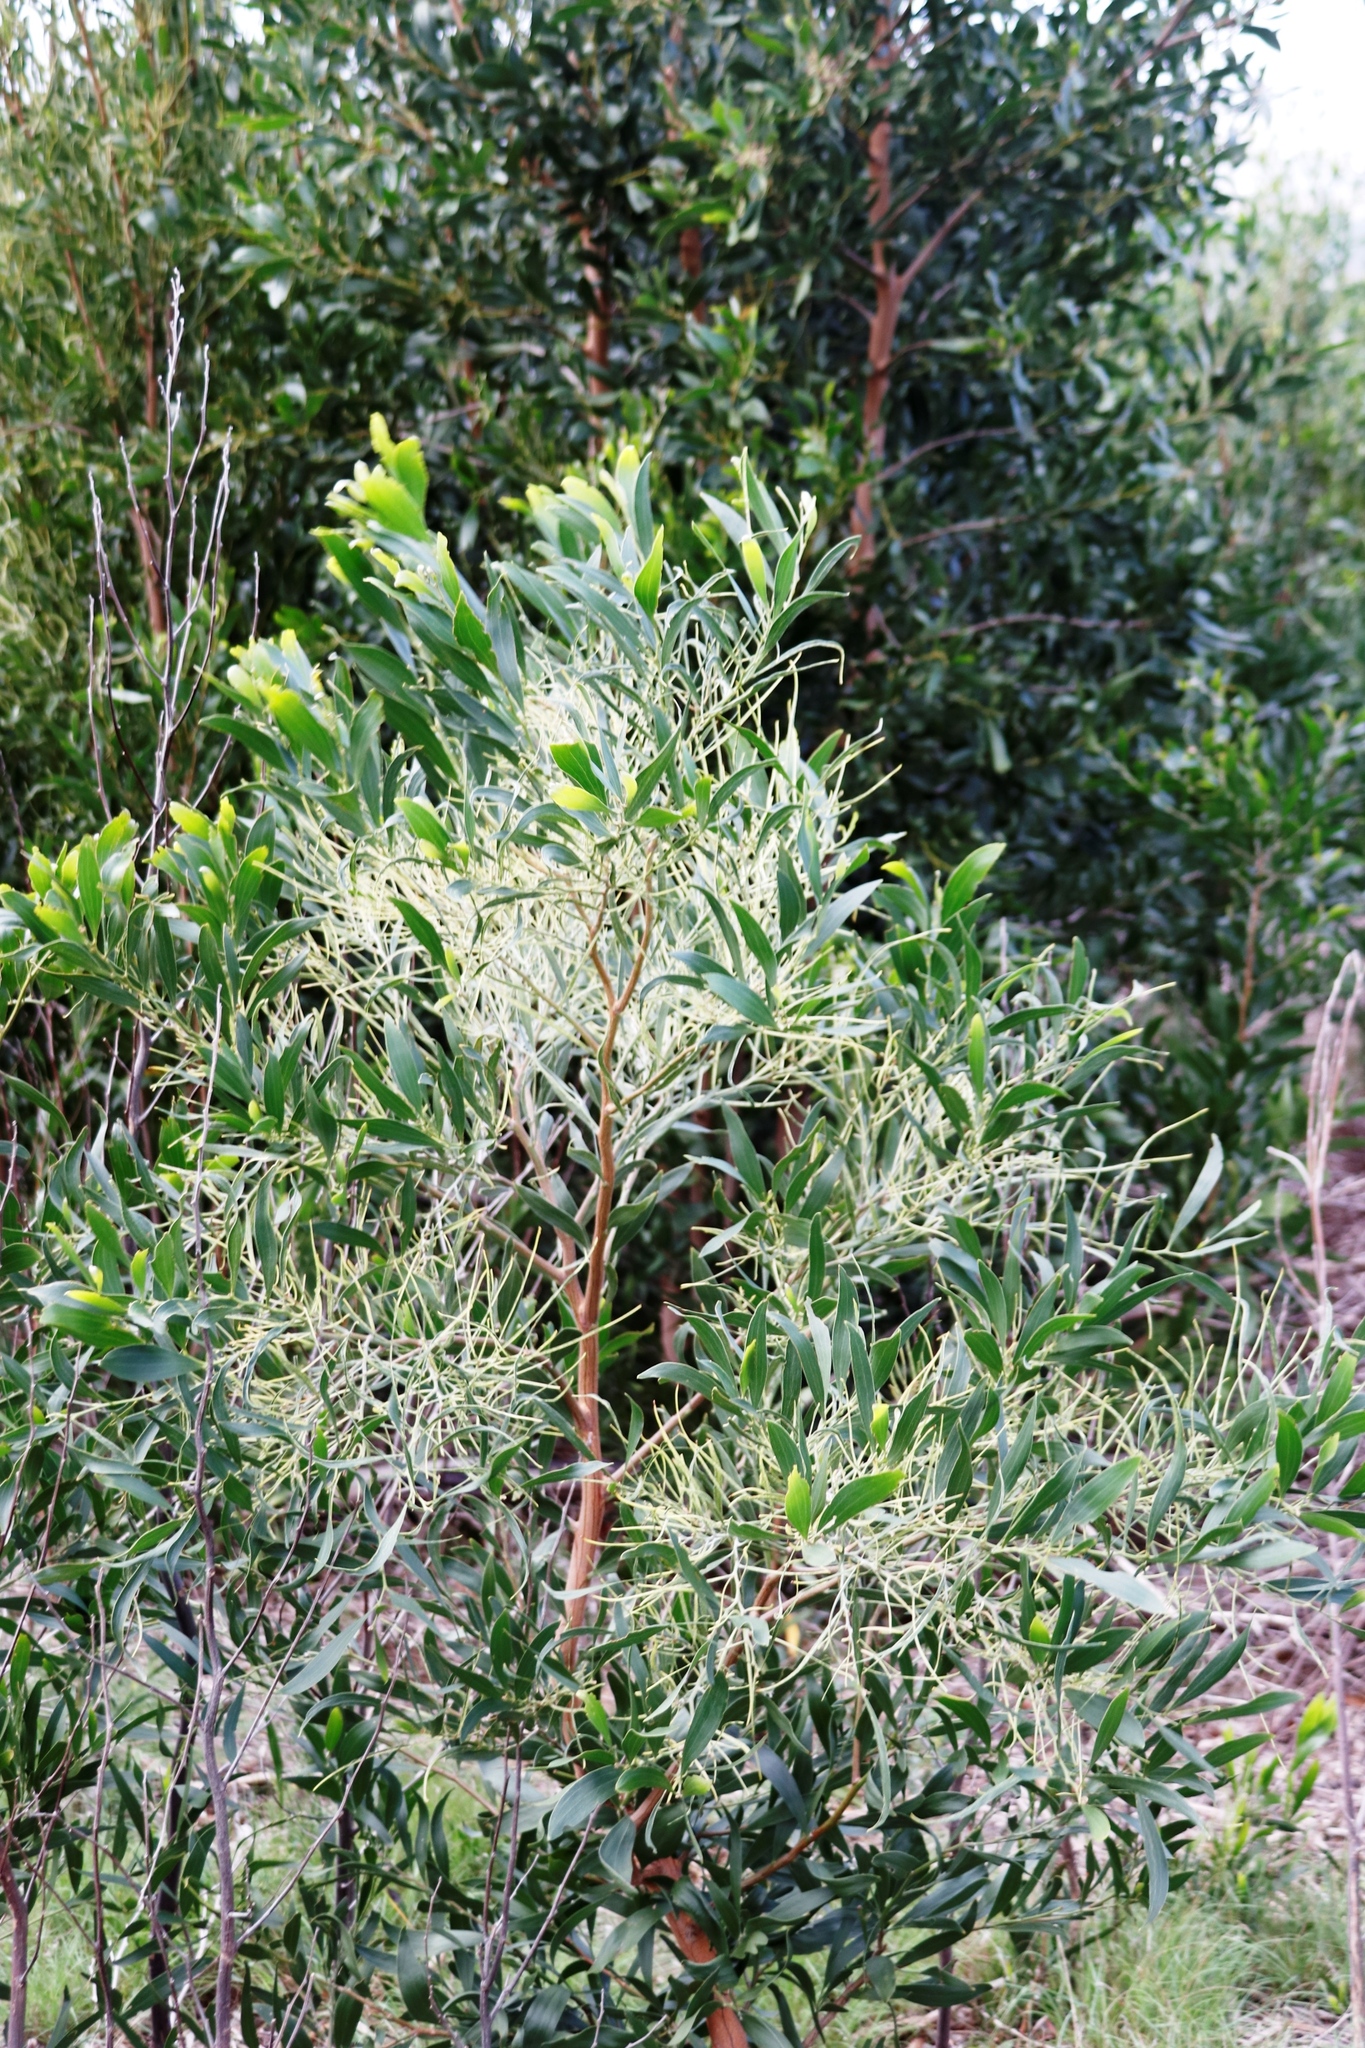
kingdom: Plantae
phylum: Tracheophyta
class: Magnoliopsida
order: Fabales
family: Fabaceae
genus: Acacia
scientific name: Acacia melanoxylon
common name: Blackwood
